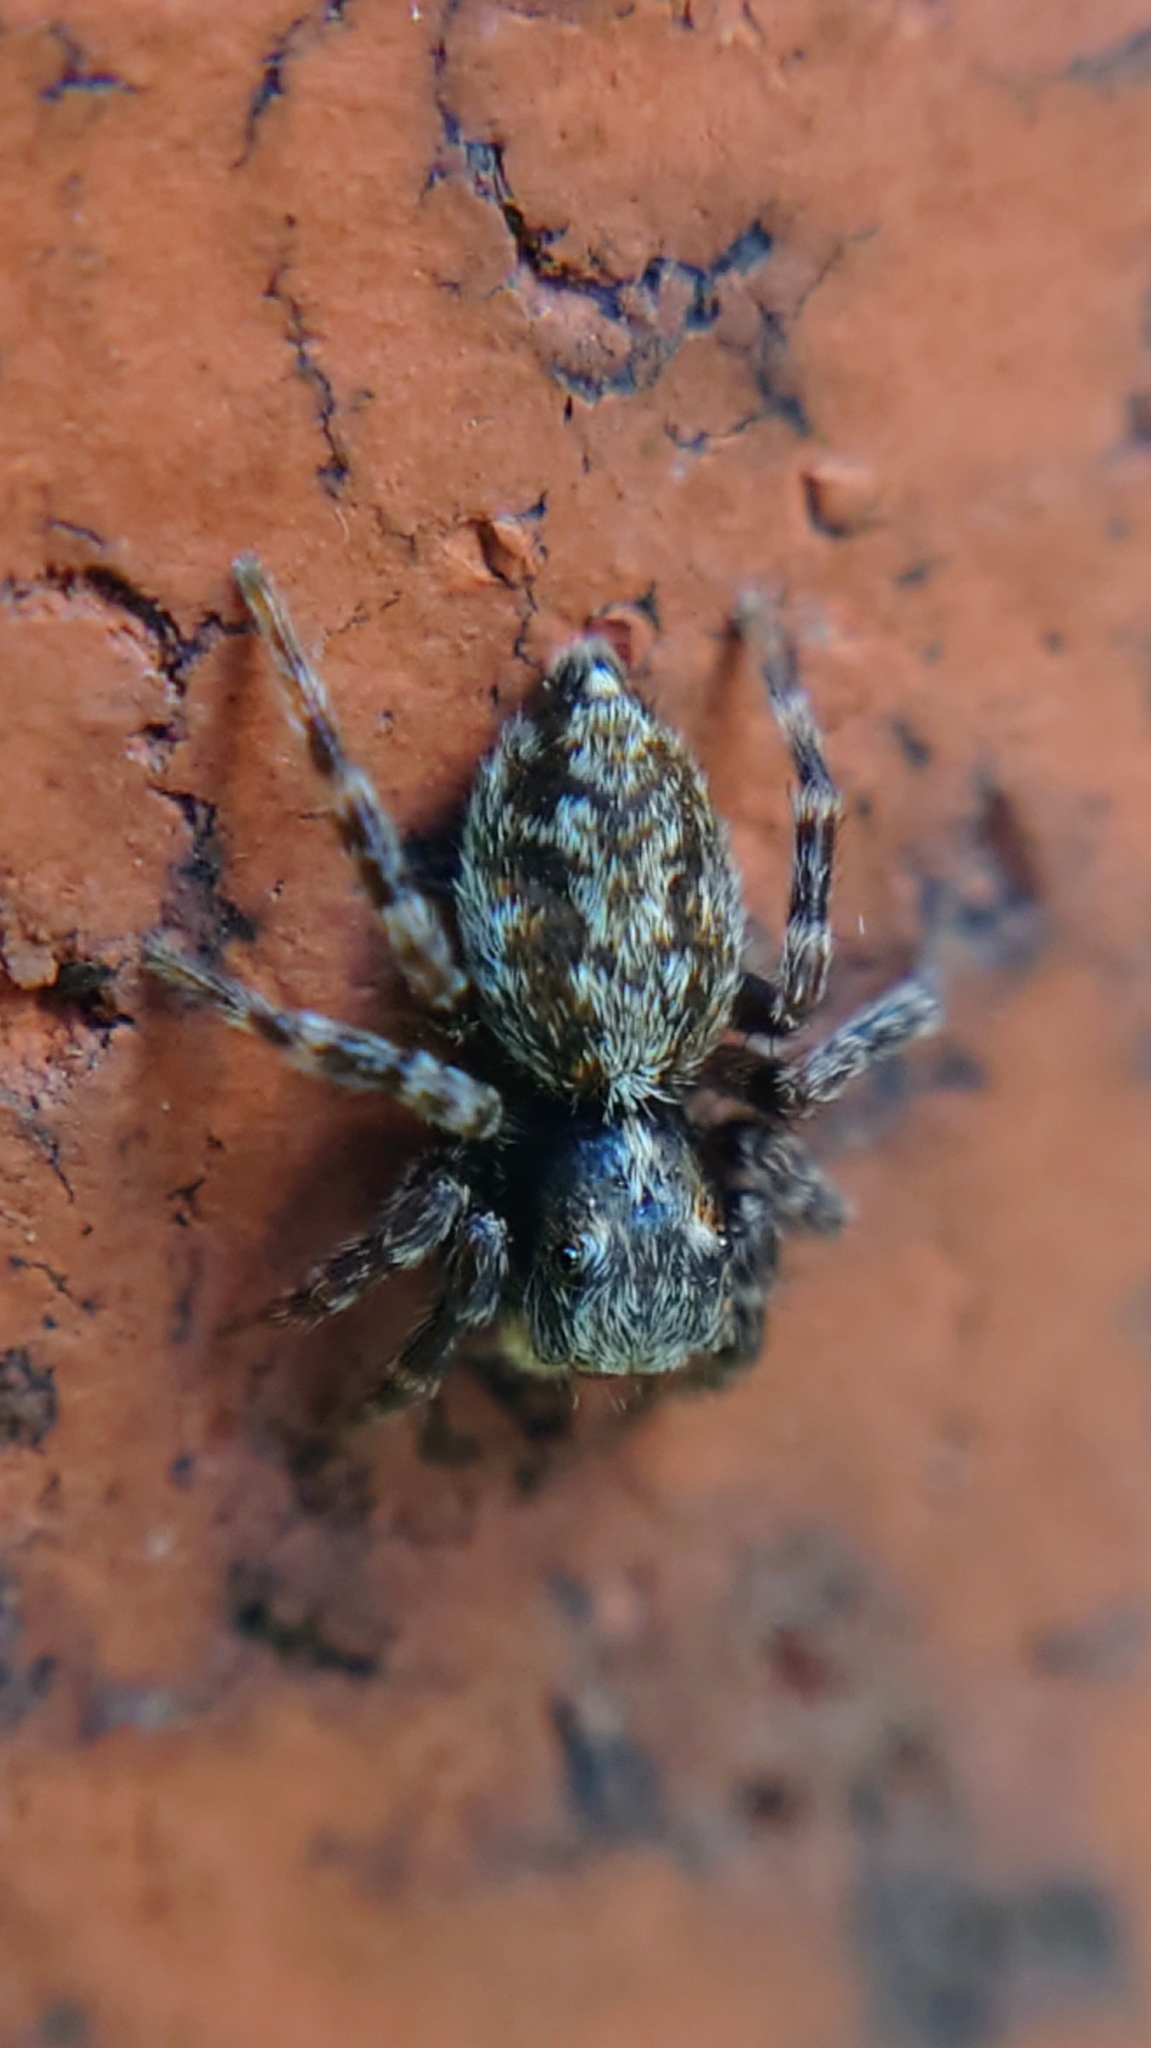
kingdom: Animalia
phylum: Arthropoda
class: Arachnida
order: Araneae
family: Salticidae
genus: Pseudeuophrys
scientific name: Pseudeuophrys lanigera
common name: Jumping spider
